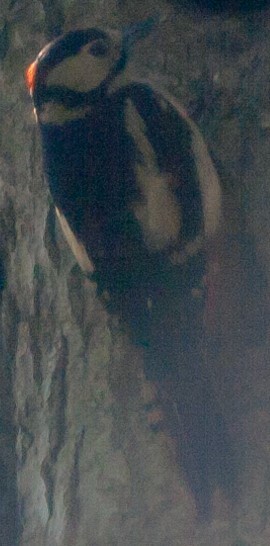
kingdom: Animalia
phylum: Chordata
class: Aves
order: Piciformes
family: Picidae
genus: Dendrocopos
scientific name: Dendrocopos major
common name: Great spotted woodpecker
